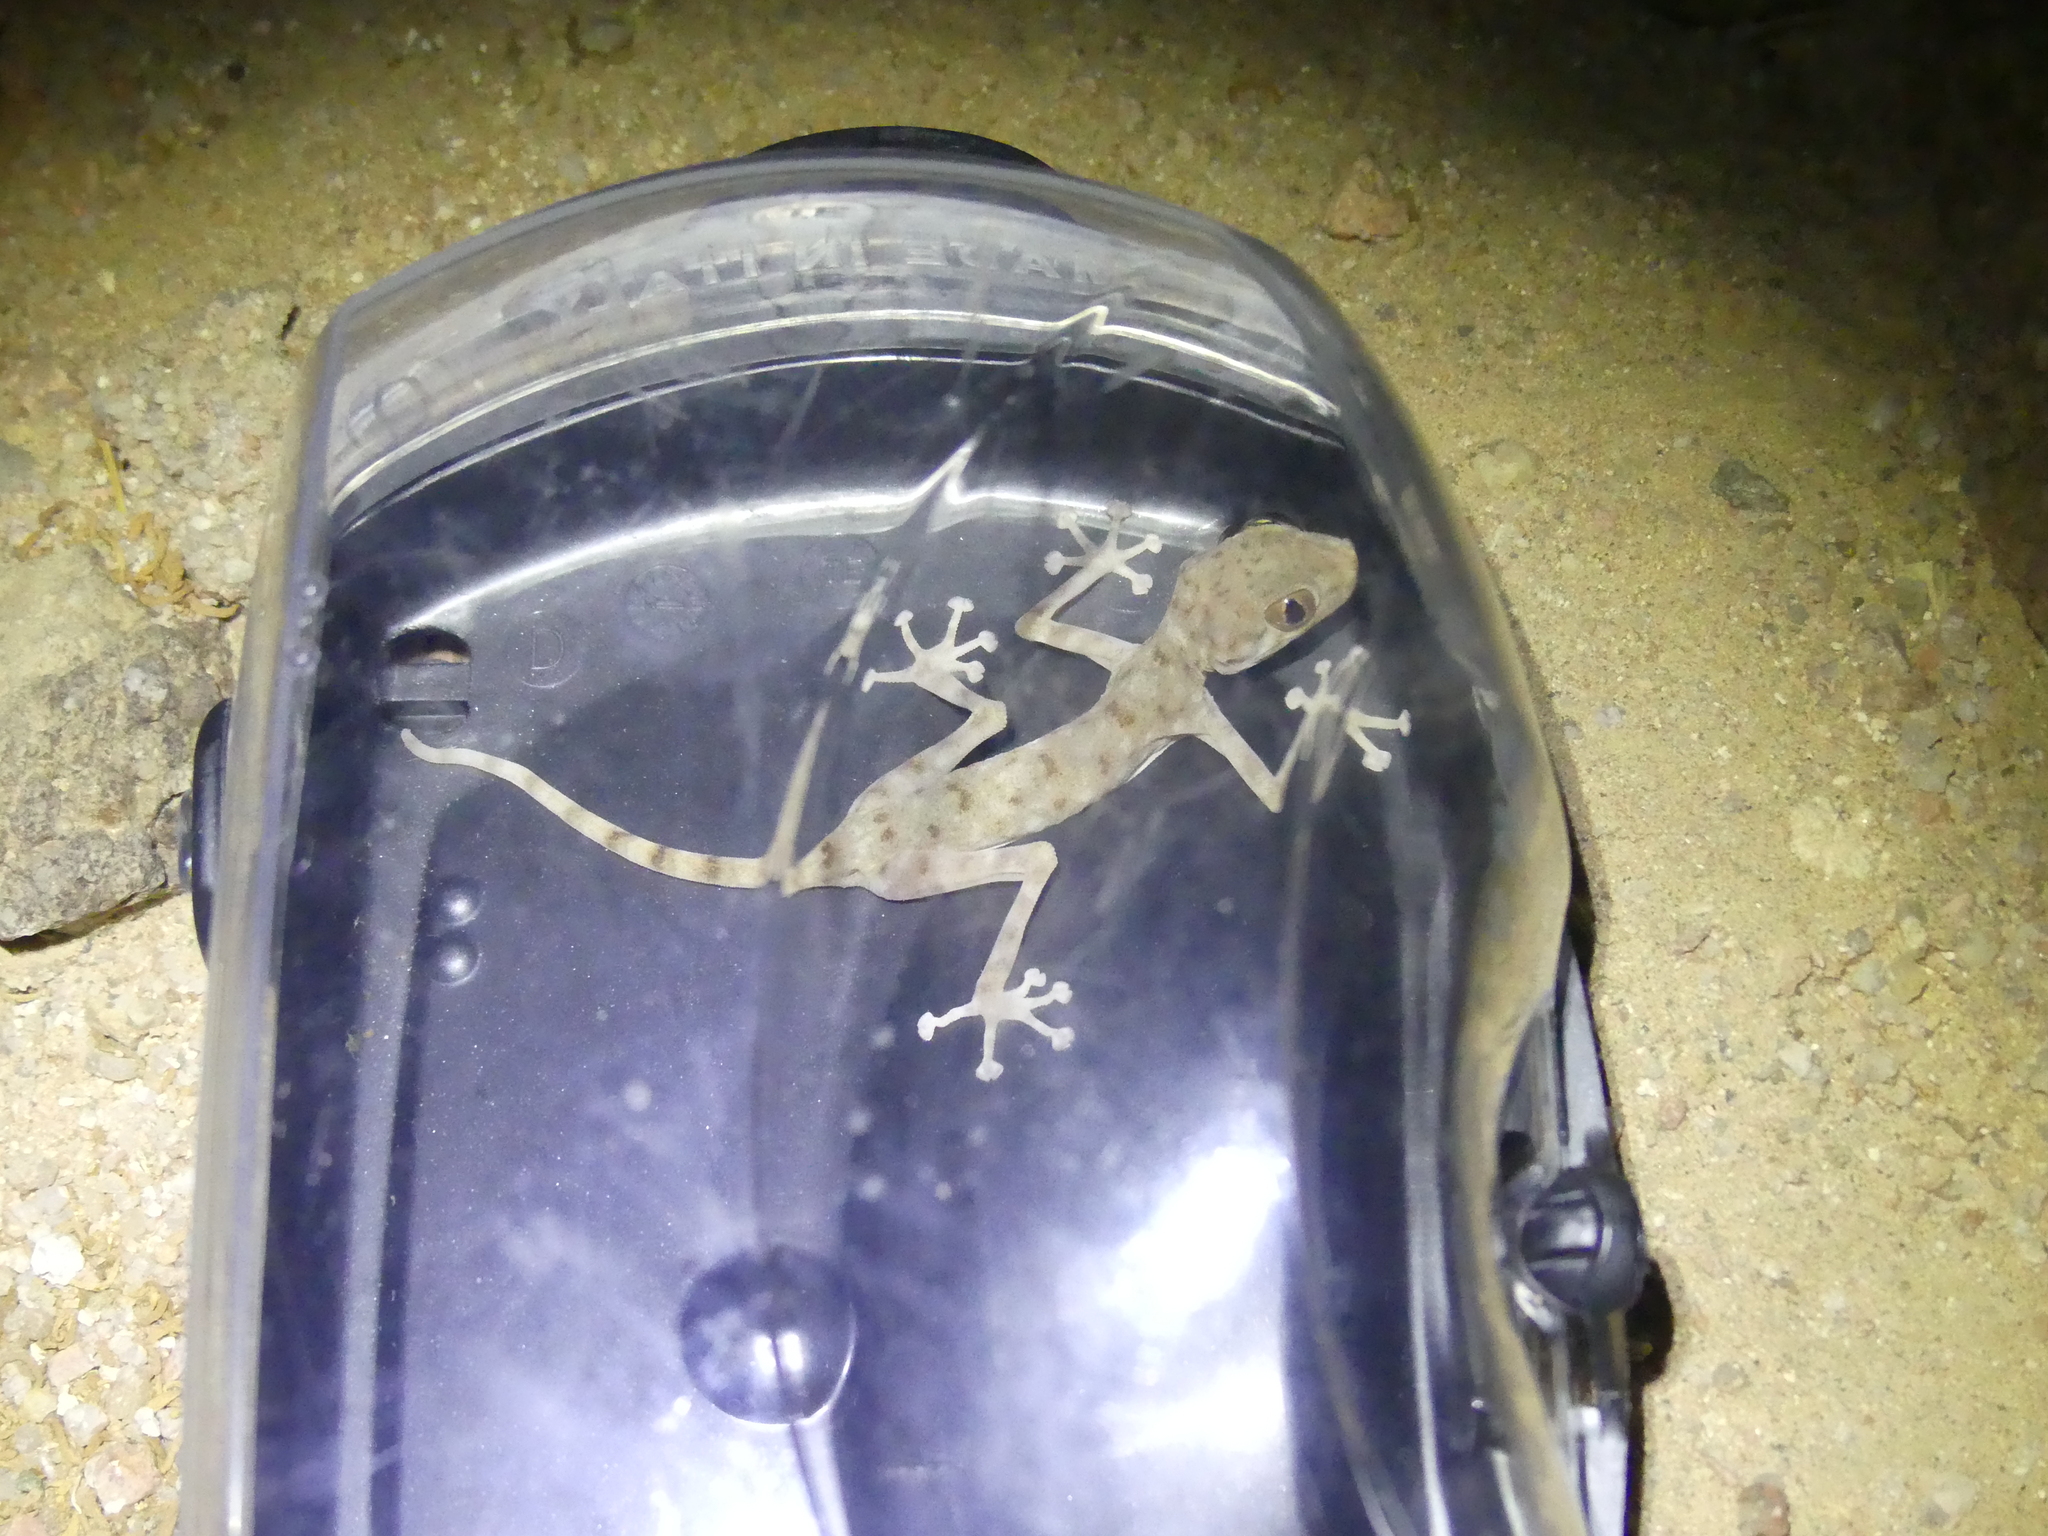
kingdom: Animalia
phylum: Chordata
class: Squamata
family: Phyllodactylidae
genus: Ptyodactylus
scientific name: Ptyodactylus hasselquistii
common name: Hasselquist’s fan-footed gecko
